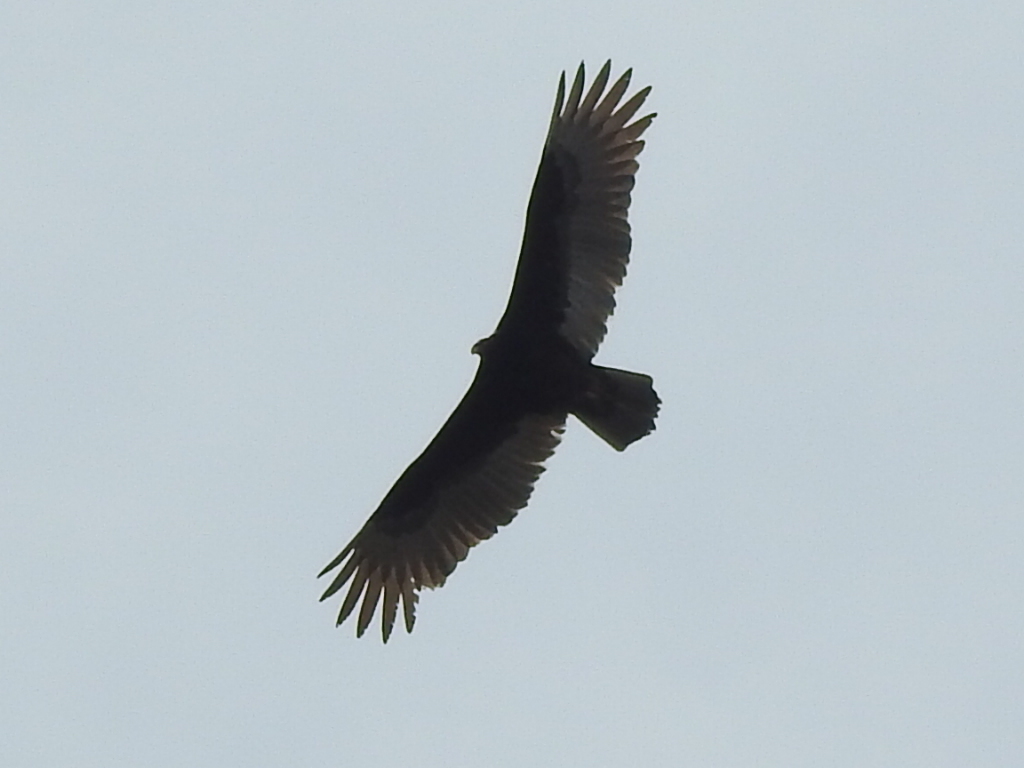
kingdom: Animalia
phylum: Chordata
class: Aves
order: Accipitriformes
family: Cathartidae
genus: Cathartes
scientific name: Cathartes aura
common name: Turkey vulture
